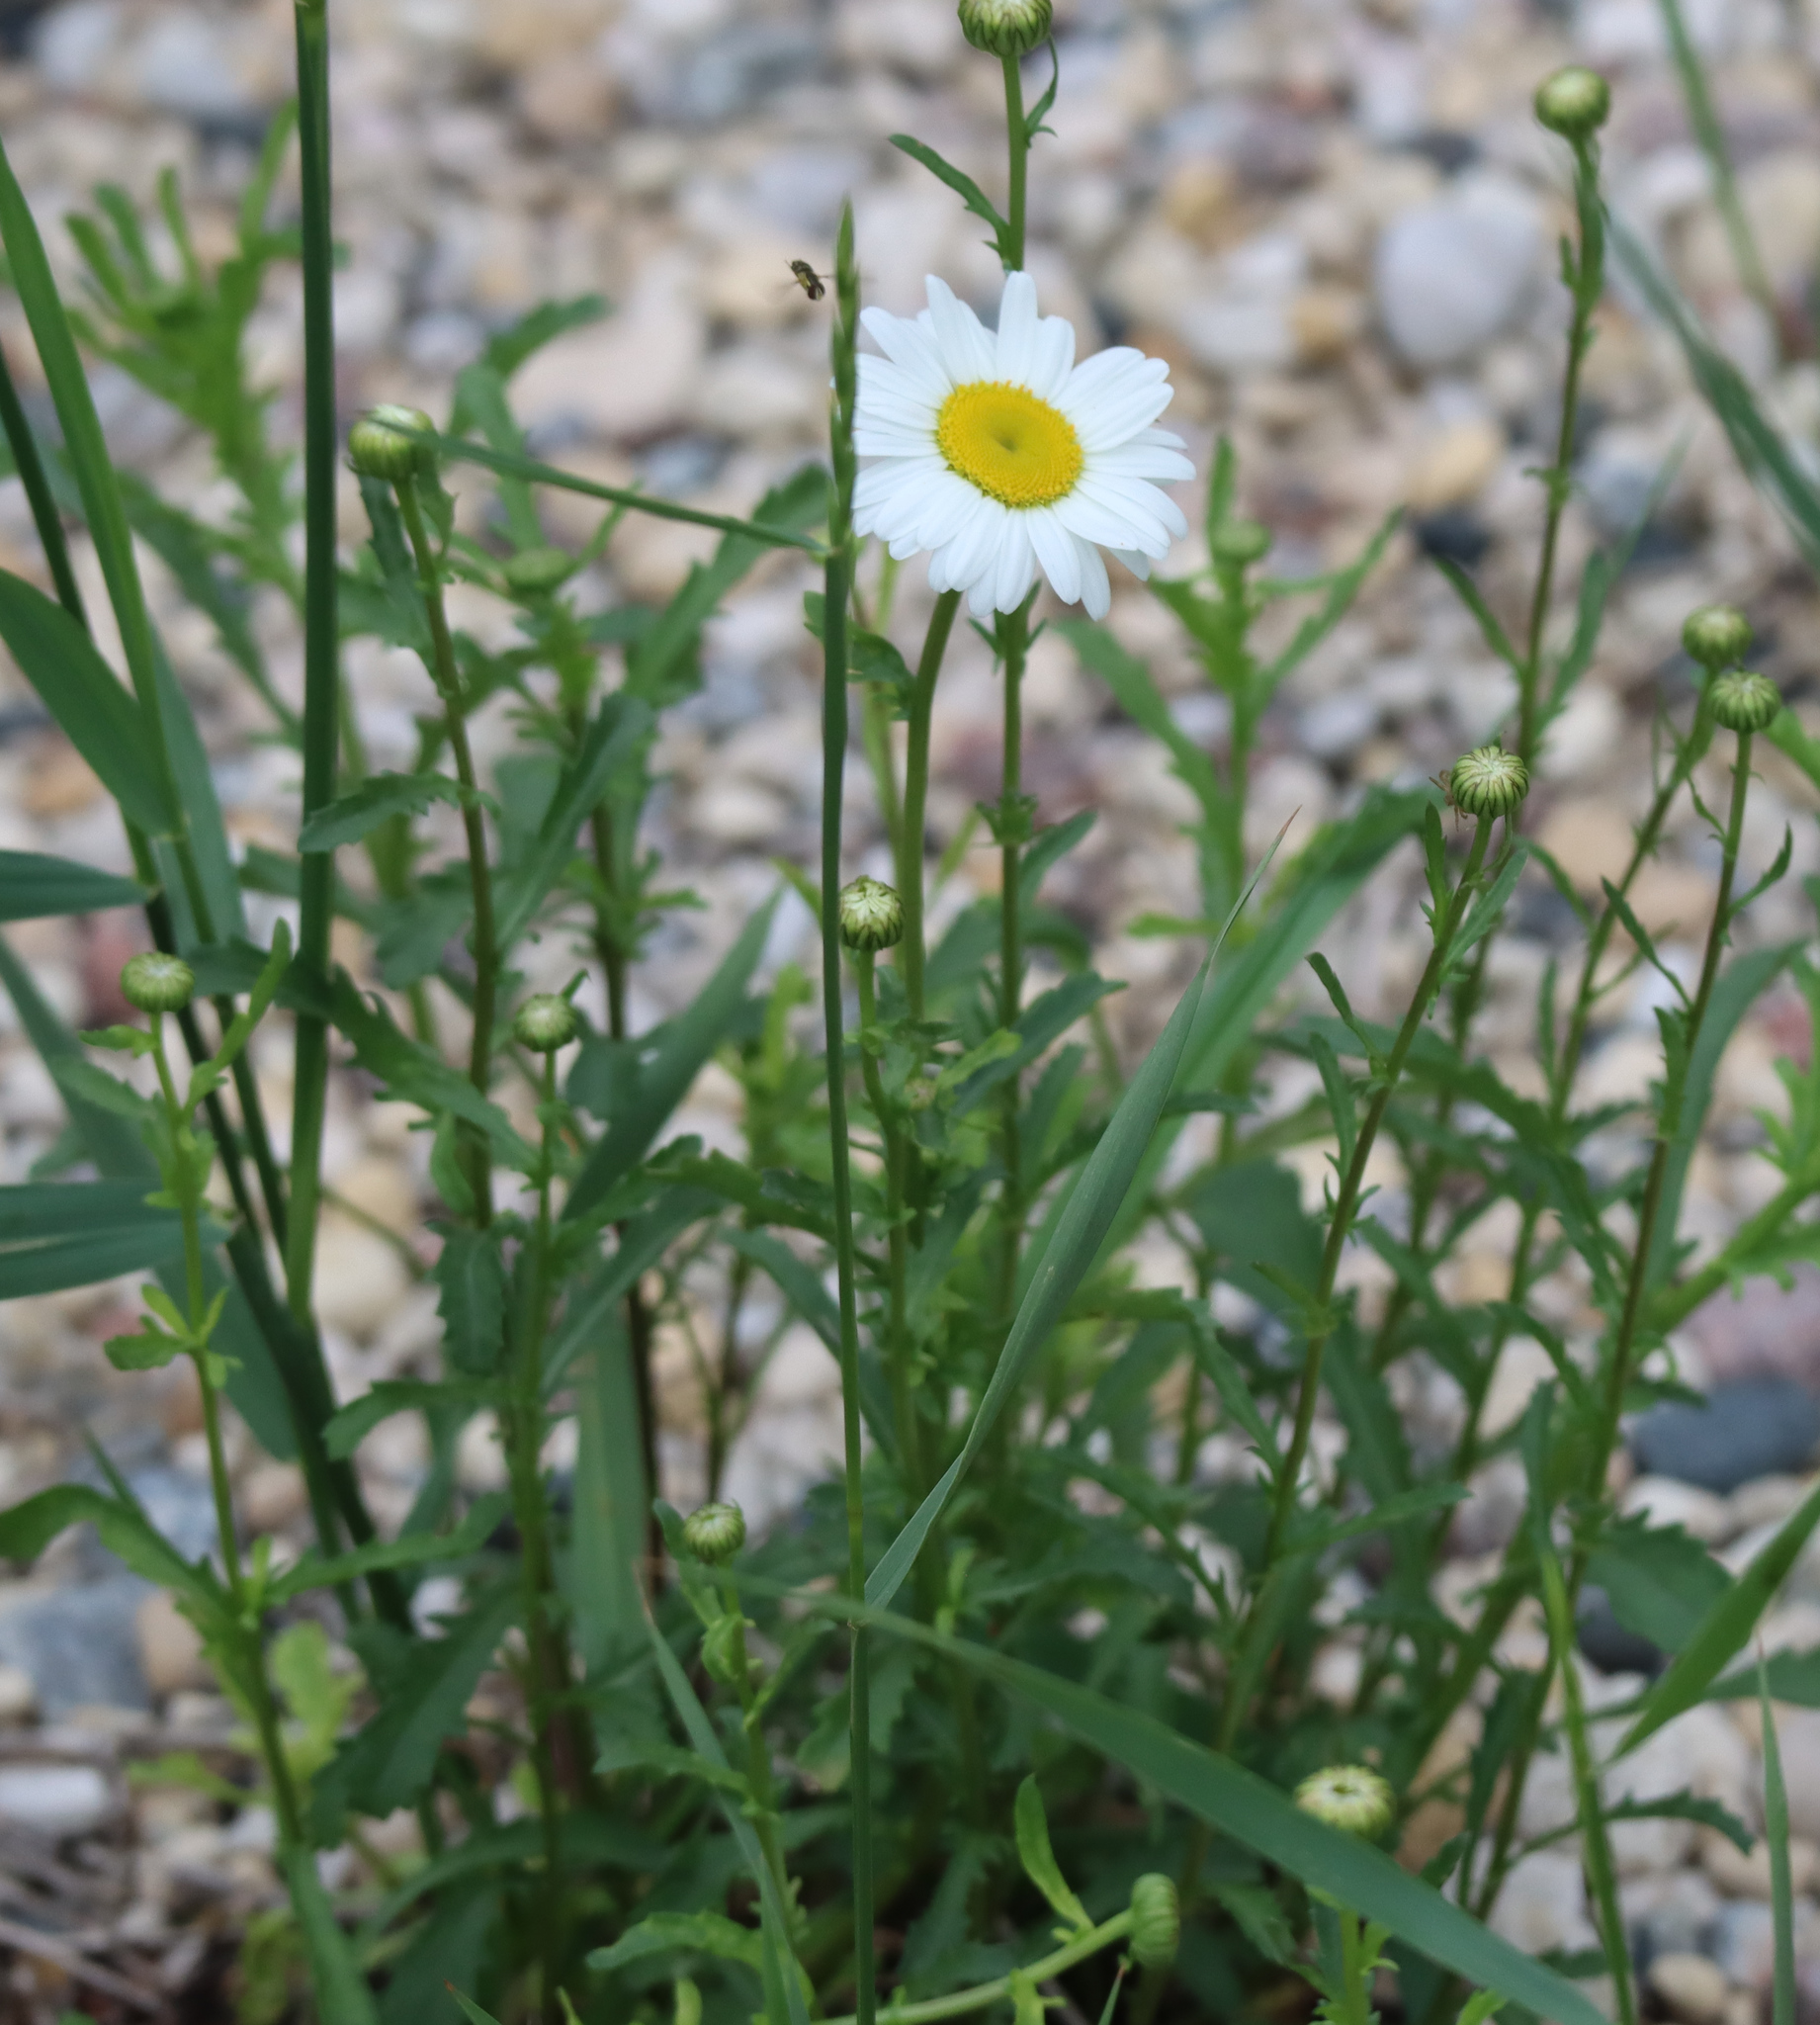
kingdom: Plantae
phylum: Tracheophyta
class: Magnoliopsida
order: Asterales
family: Asteraceae
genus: Leucanthemum
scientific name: Leucanthemum vulgare
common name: Oxeye daisy
